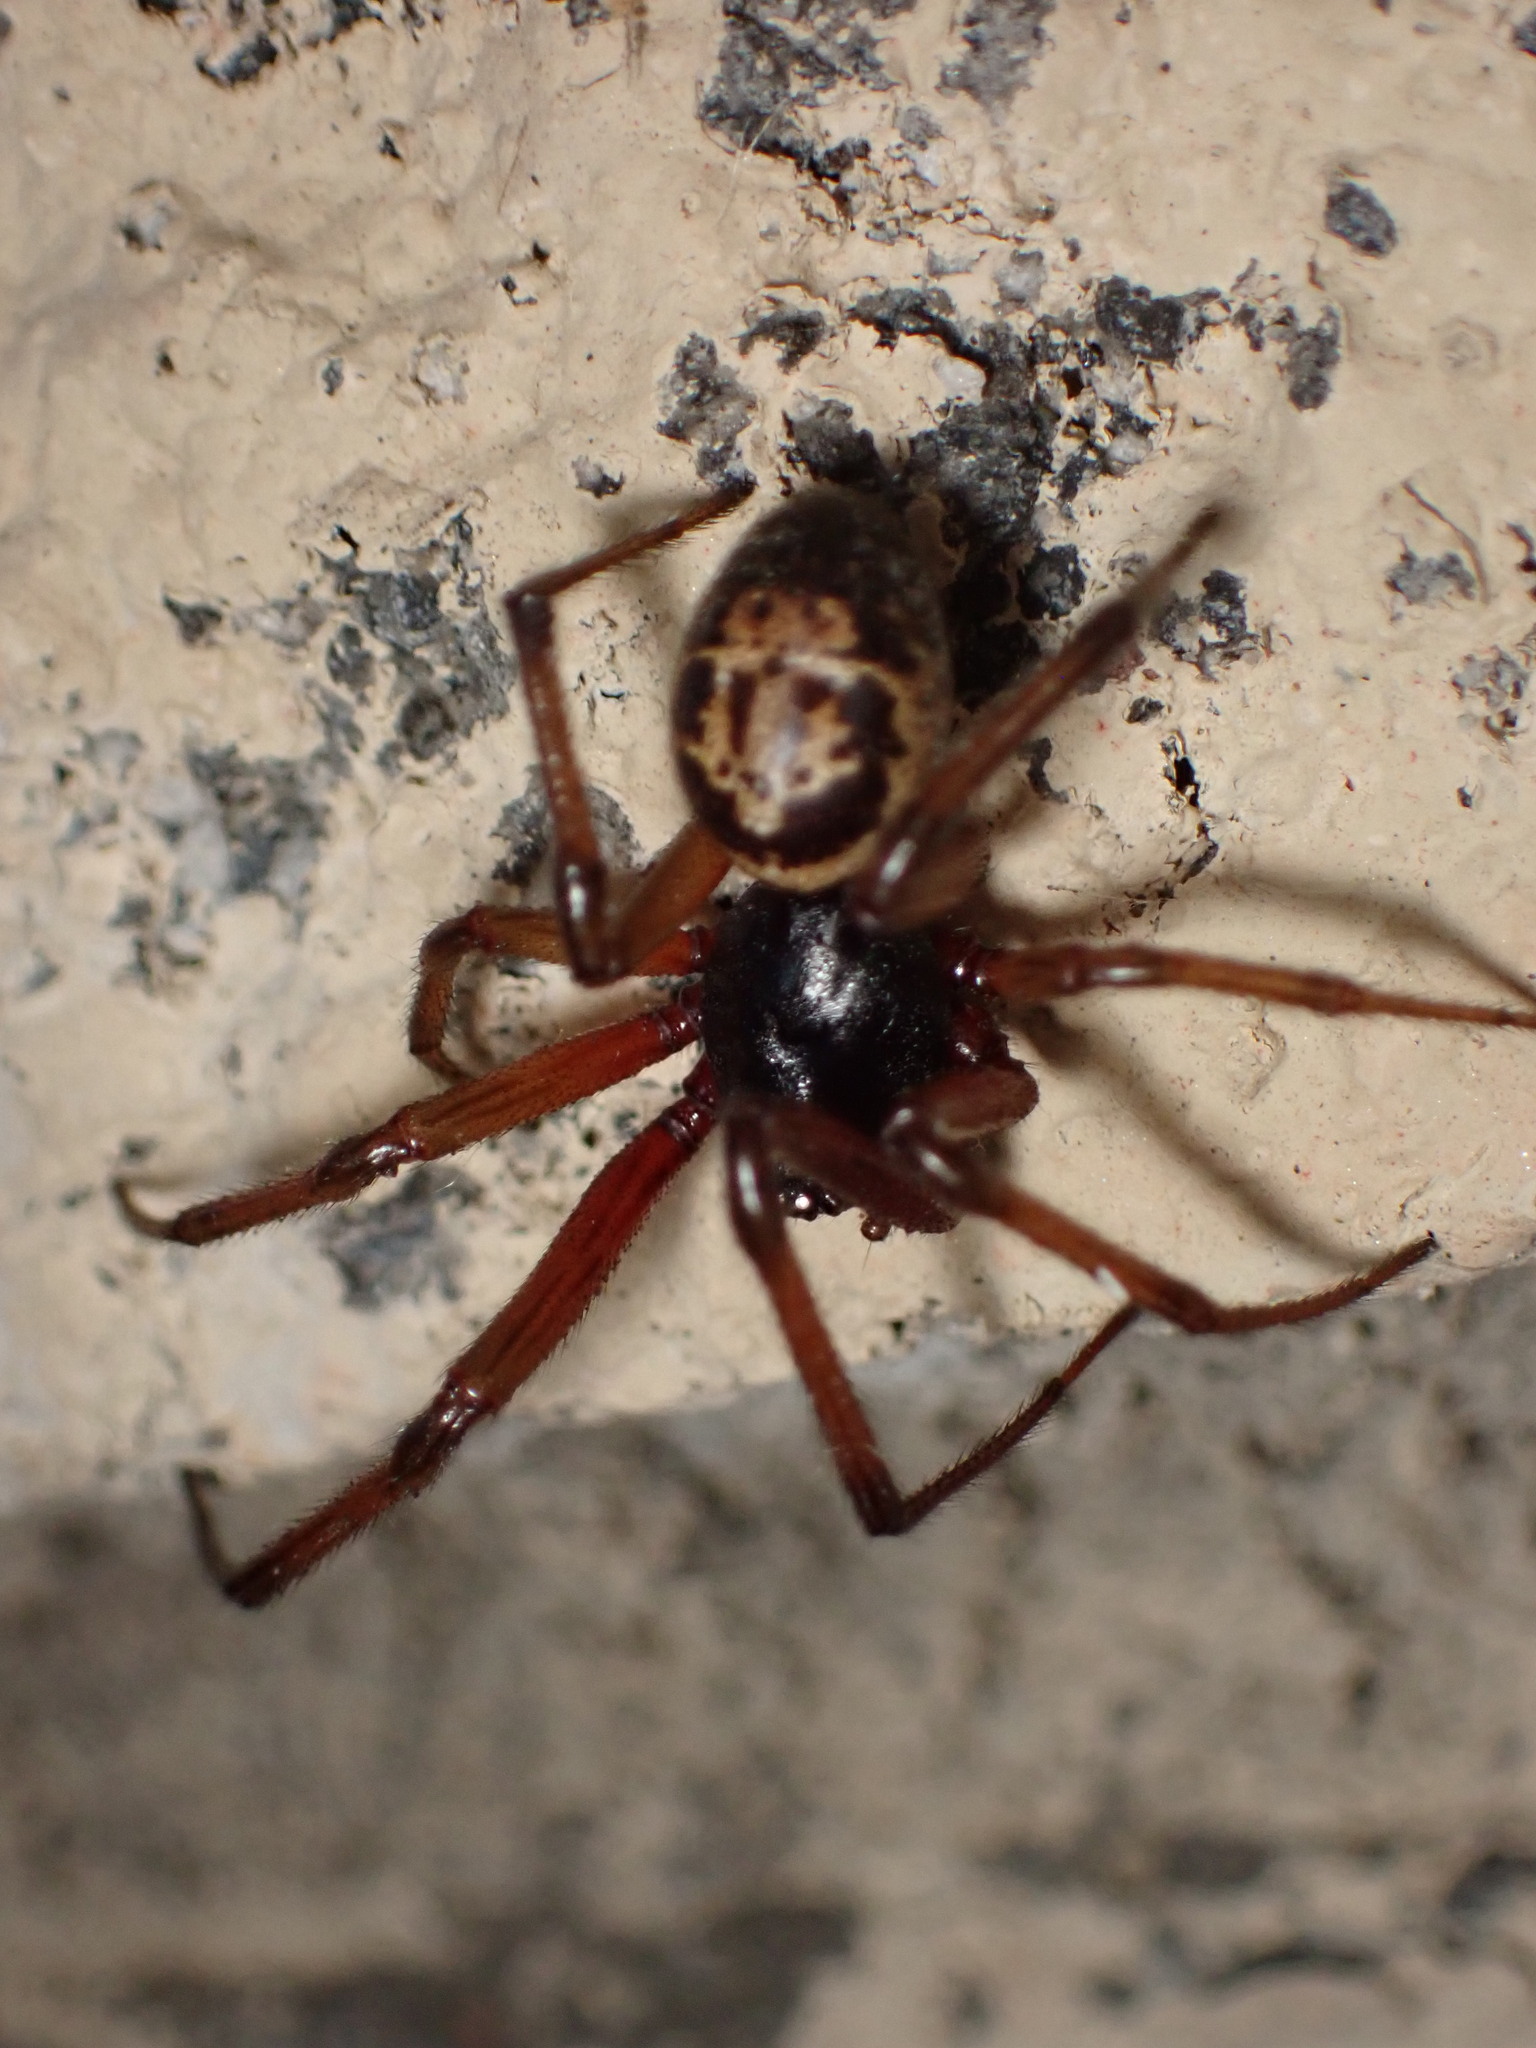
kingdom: Animalia
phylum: Arthropoda
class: Arachnida
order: Araneae
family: Theridiidae
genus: Steatoda
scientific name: Steatoda nobilis
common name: Cobweb weaver
